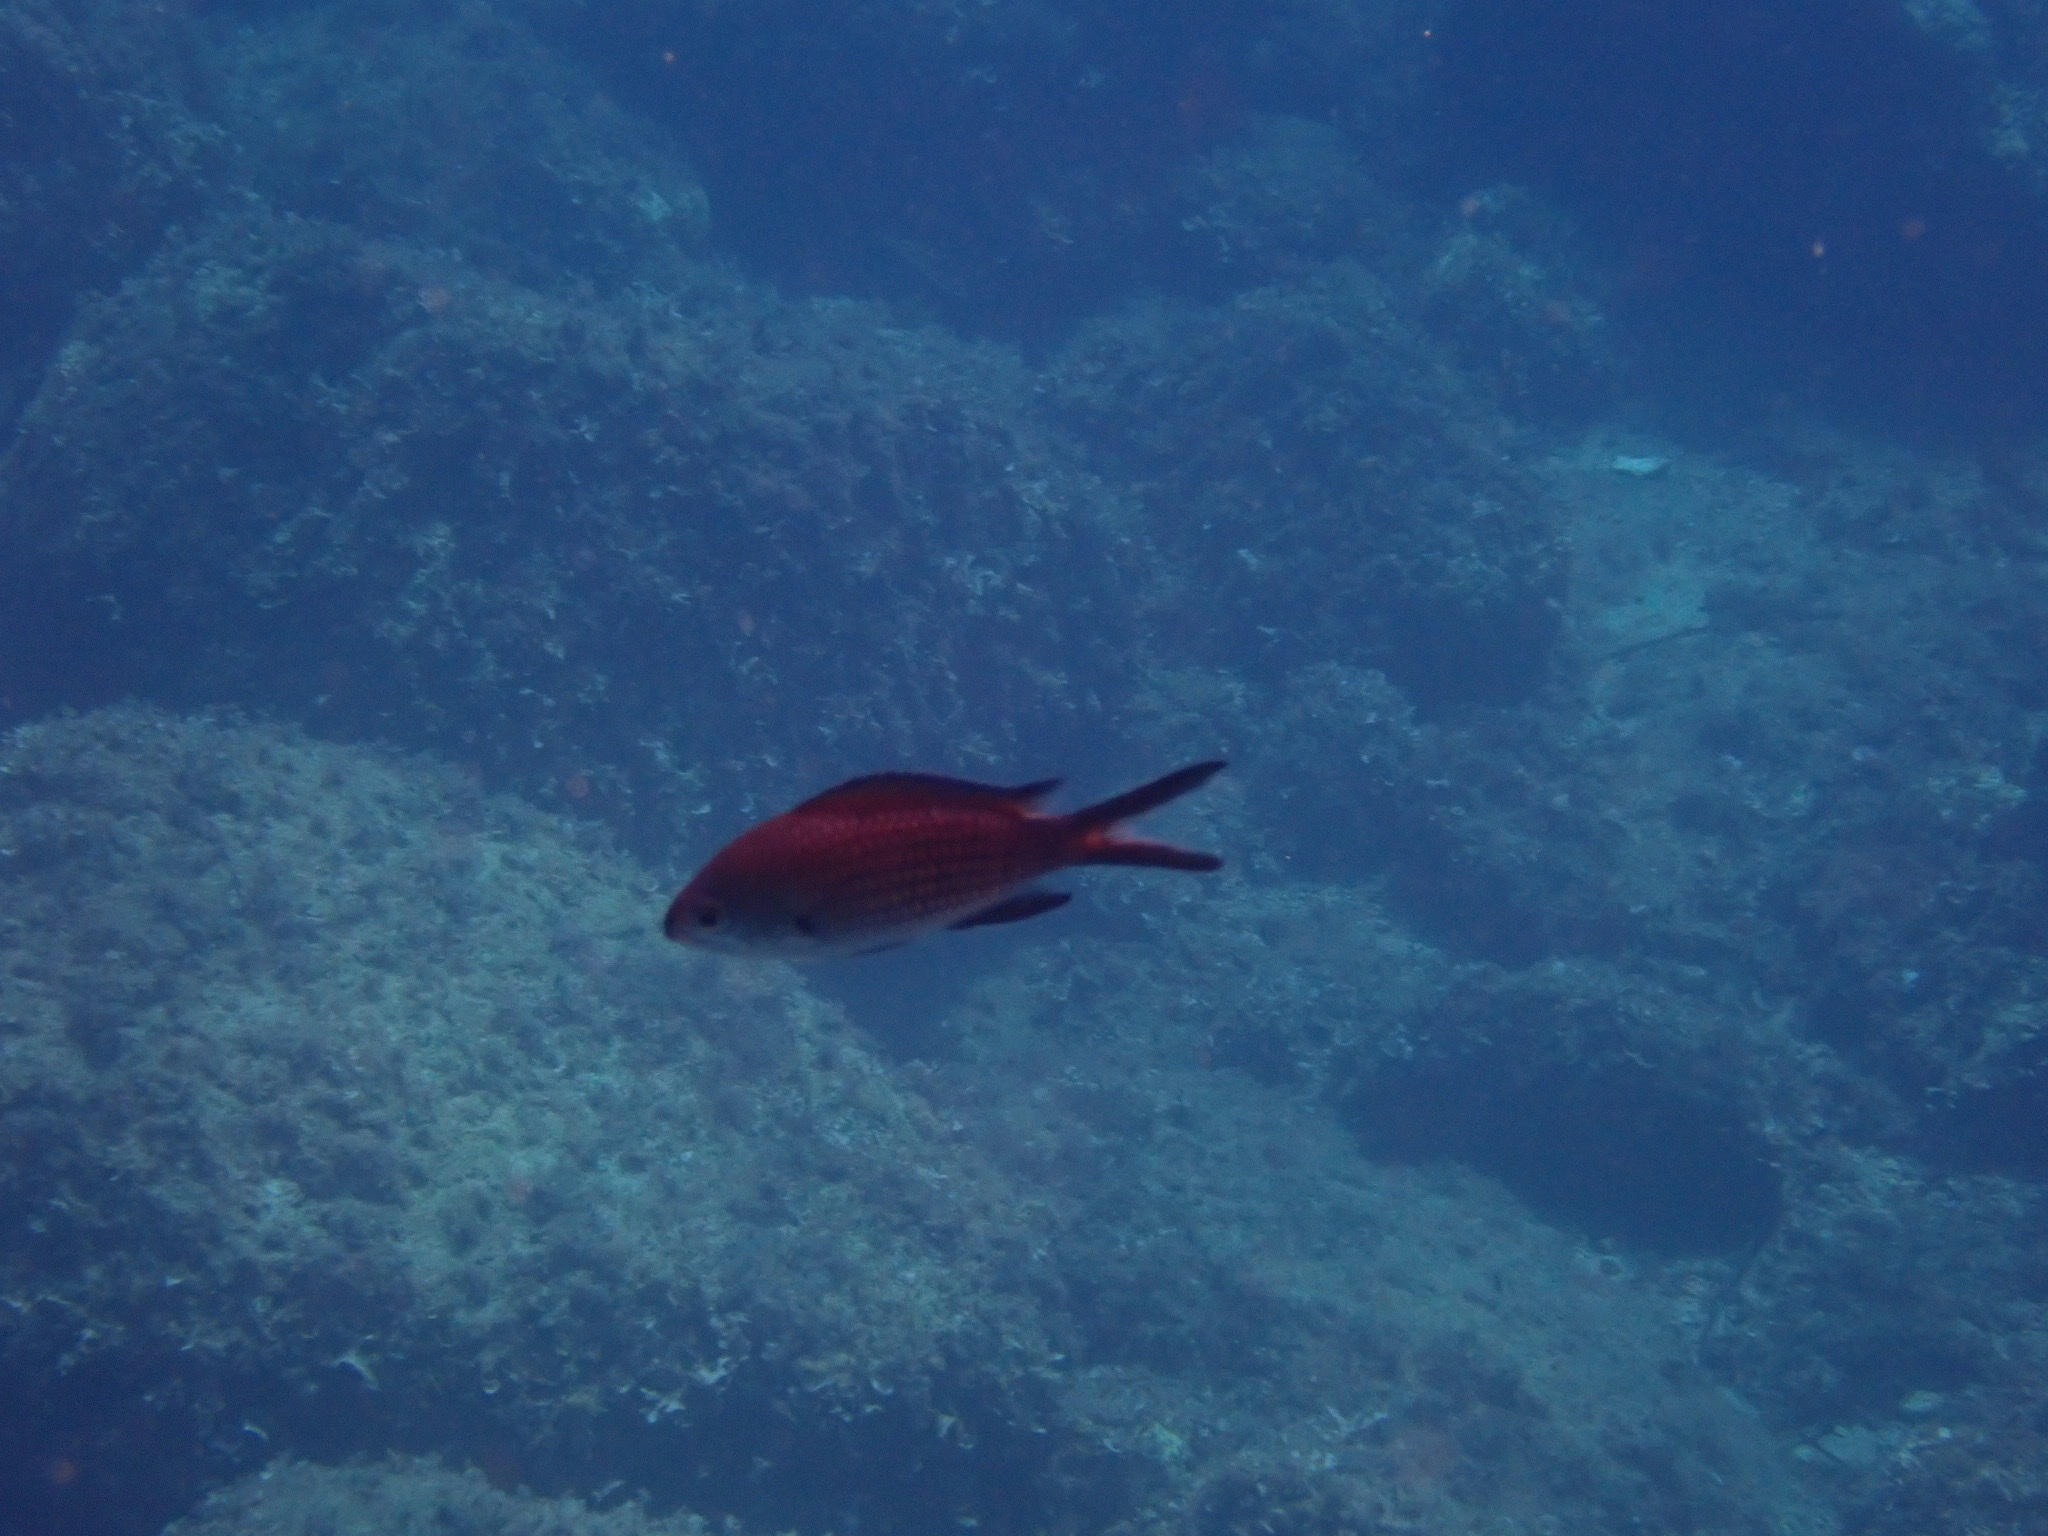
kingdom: Animalia
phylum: Chordata
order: Perciformes
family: Pomacentridae
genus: Chromis
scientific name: Chromis chromis
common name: Damselfish
